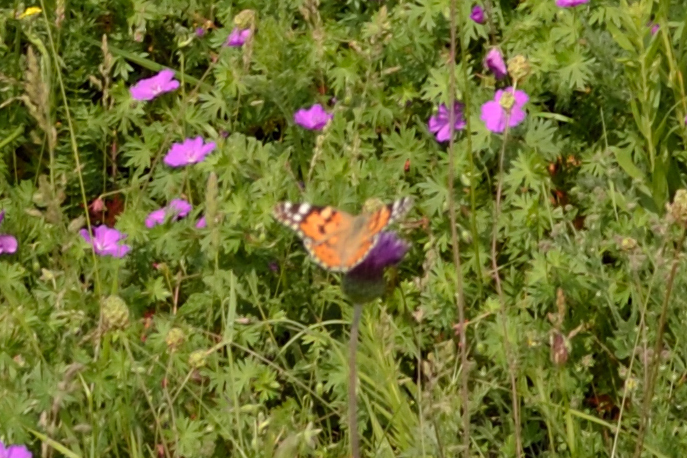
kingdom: Animalia
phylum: Arthropoda
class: Insecta
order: Lepidoptera
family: Nymphalidae
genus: Vanessa
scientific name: Vanessa cardui
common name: Painted lady
